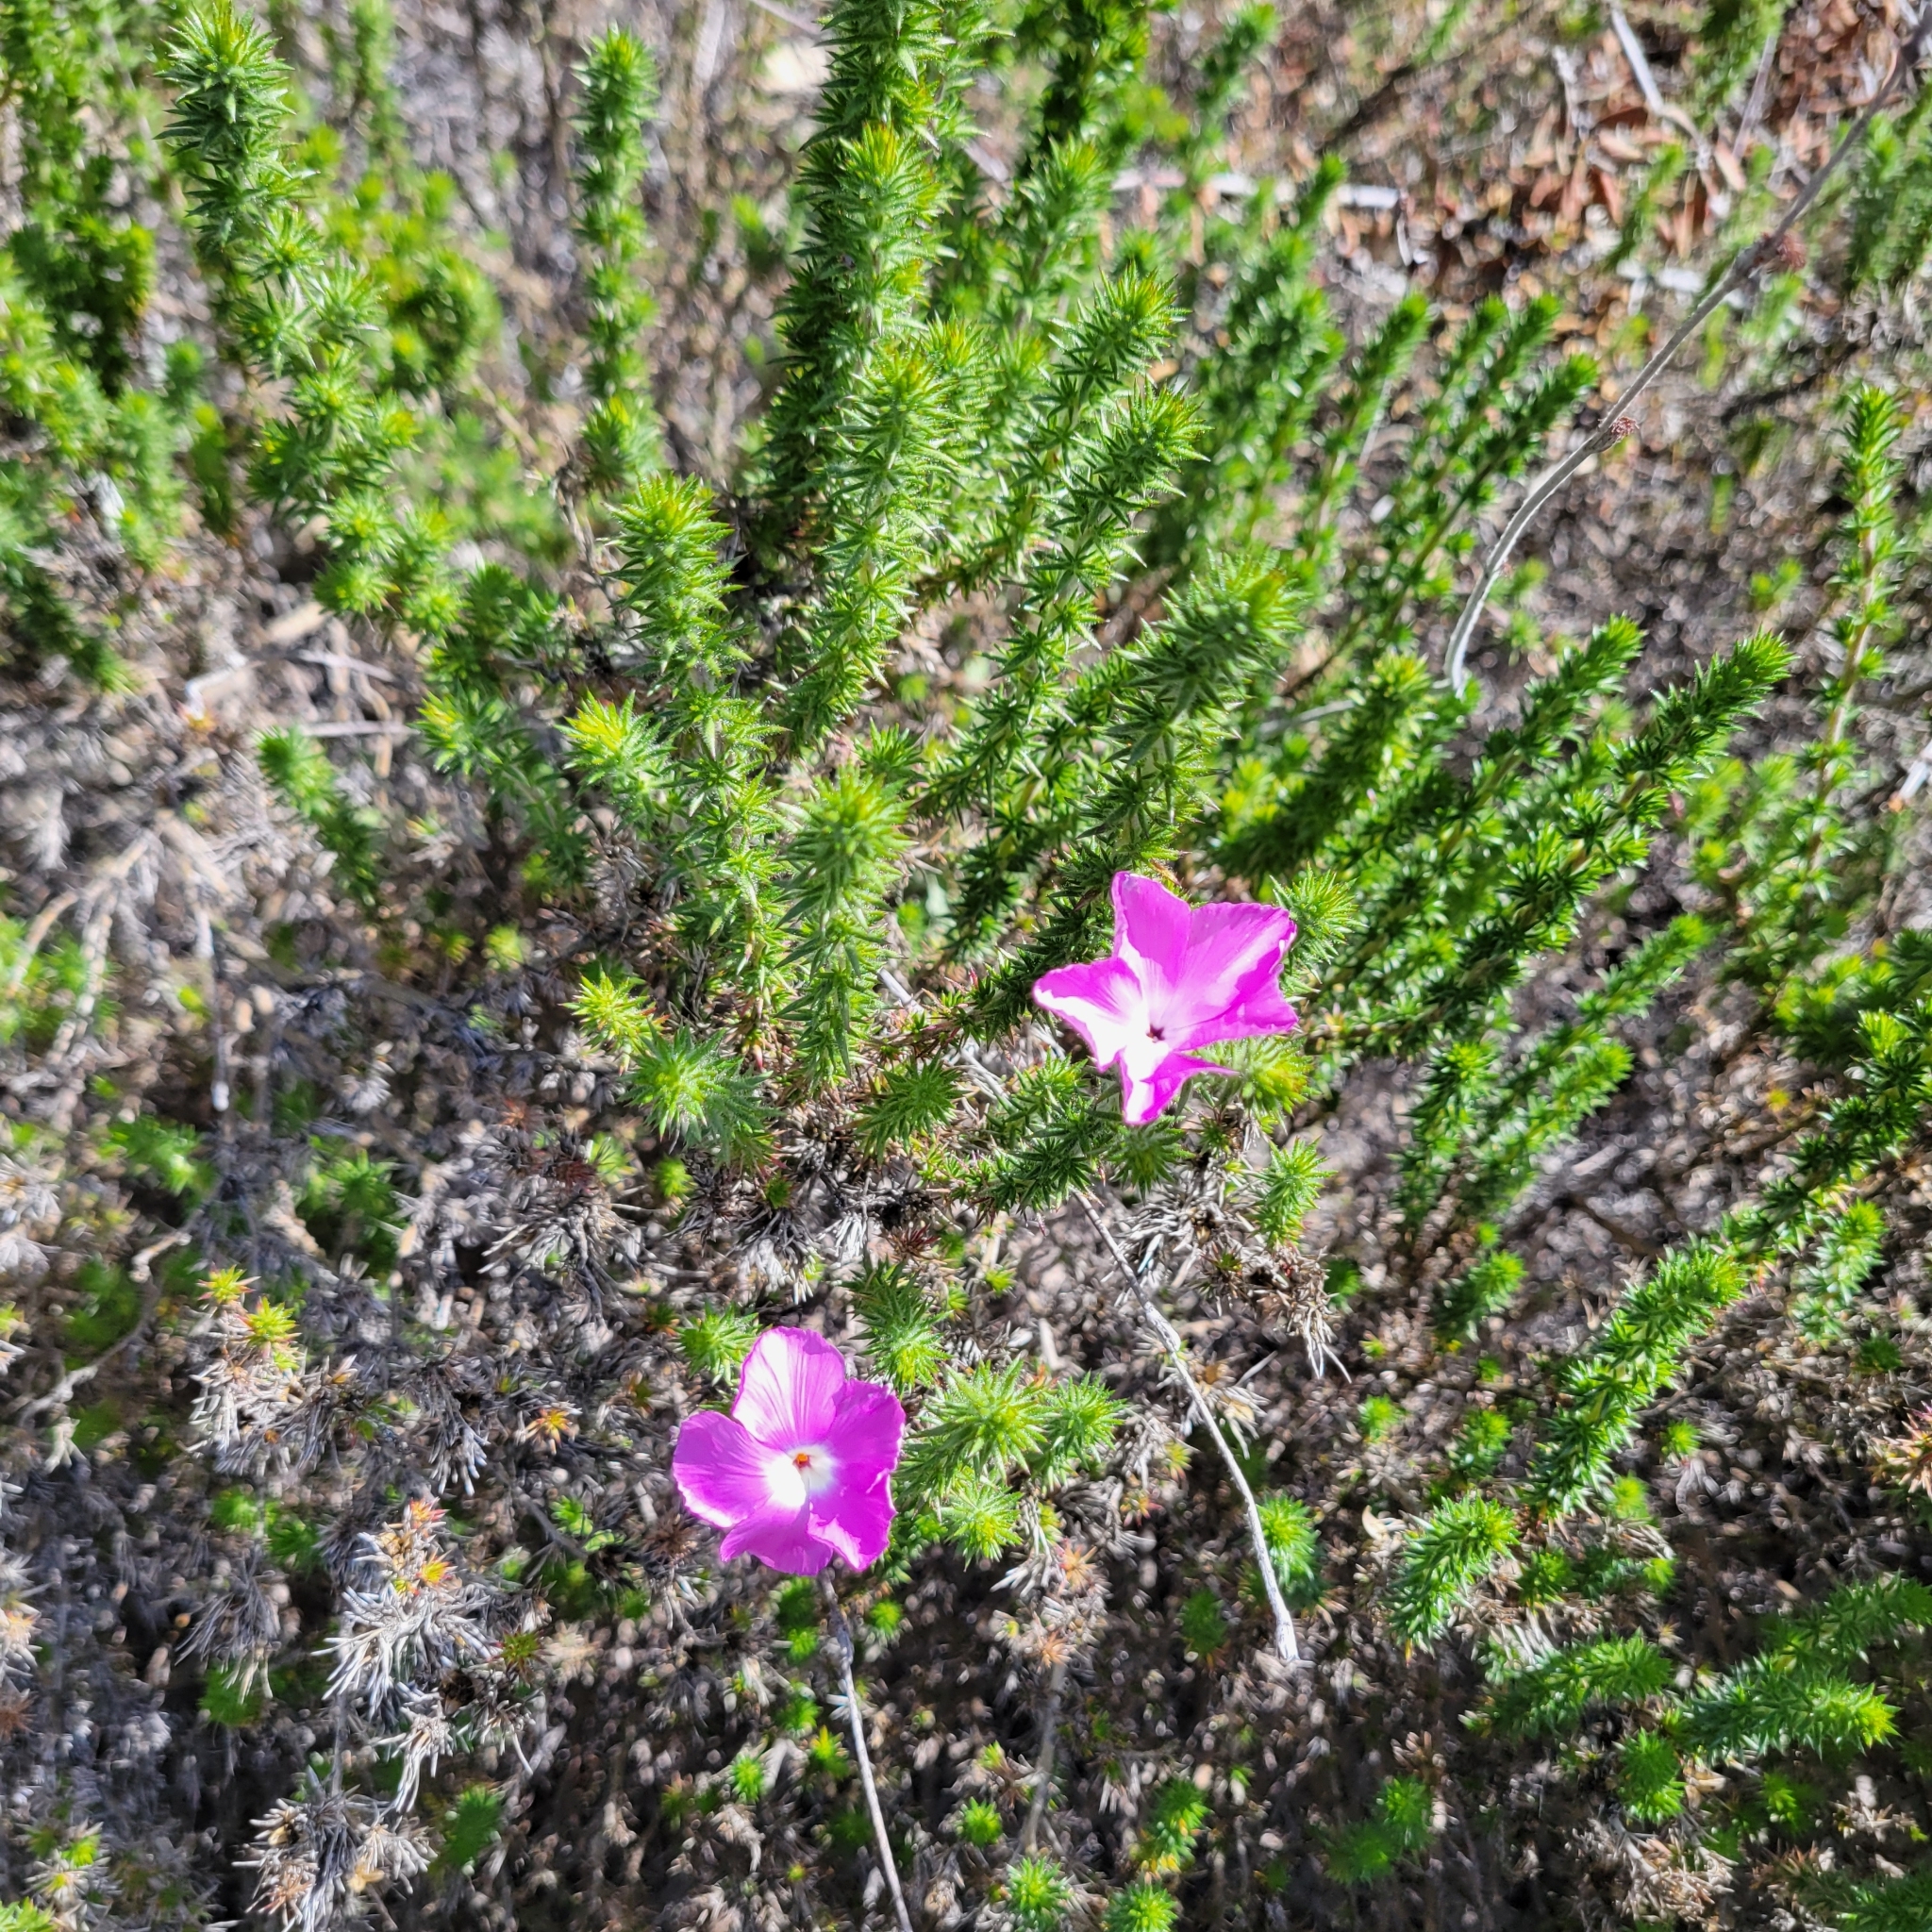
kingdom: Plantae
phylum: Tracheophyta
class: Magnoliopsida
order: Ericales
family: Polemoniaceae
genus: Linanthus
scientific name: Linanthus californicus
